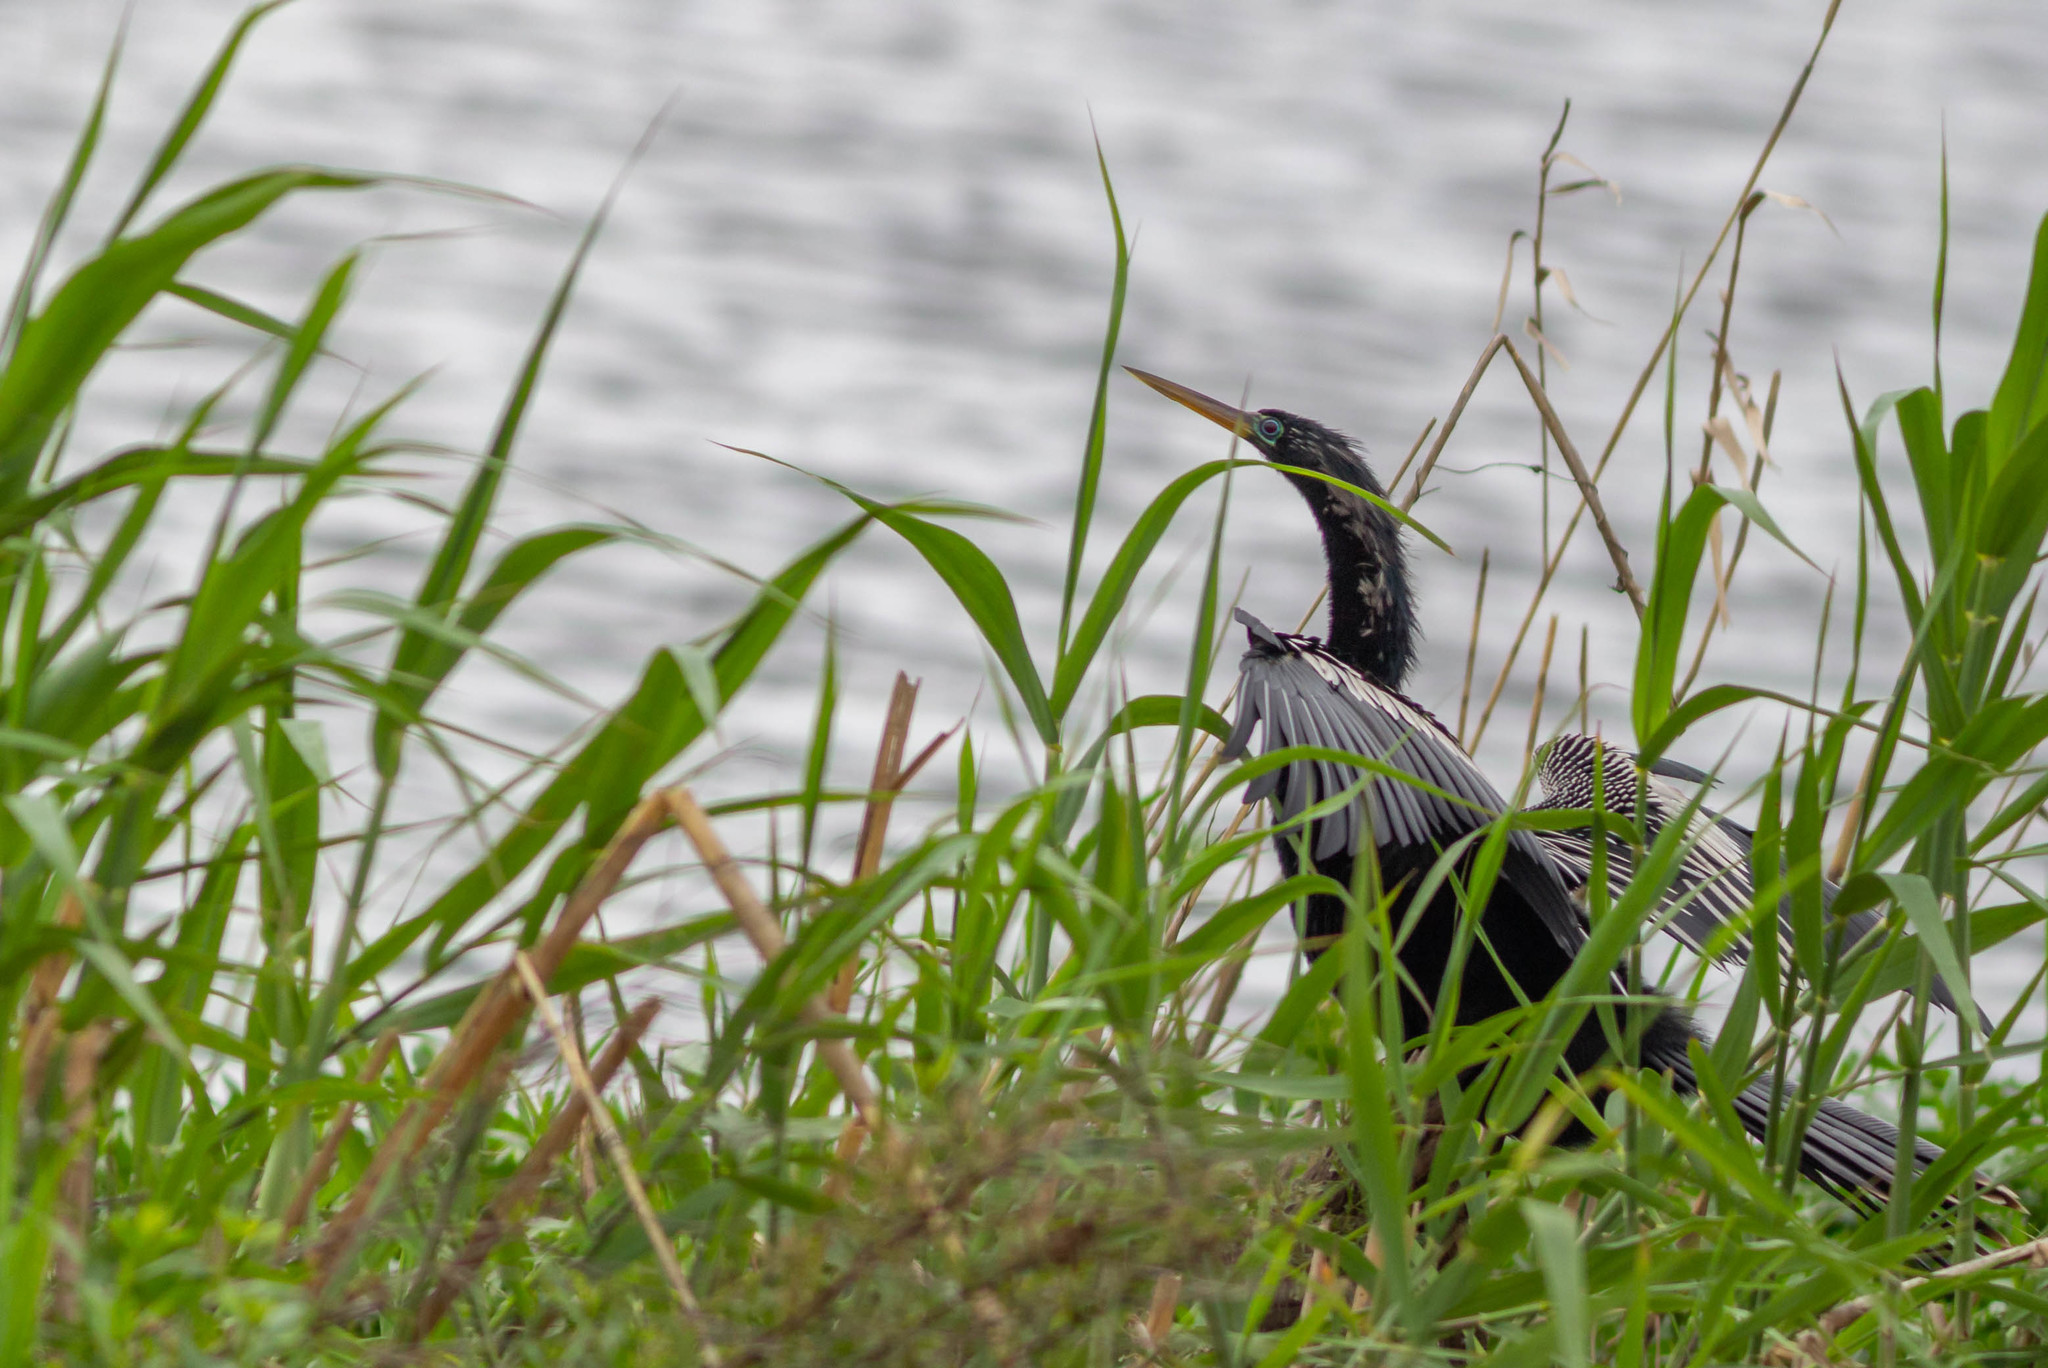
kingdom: Animalia
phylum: Chordata
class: Aves
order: Suliformes
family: Anhingidae
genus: Anhinga
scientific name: Anhinga anhinga
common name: Anhinga
